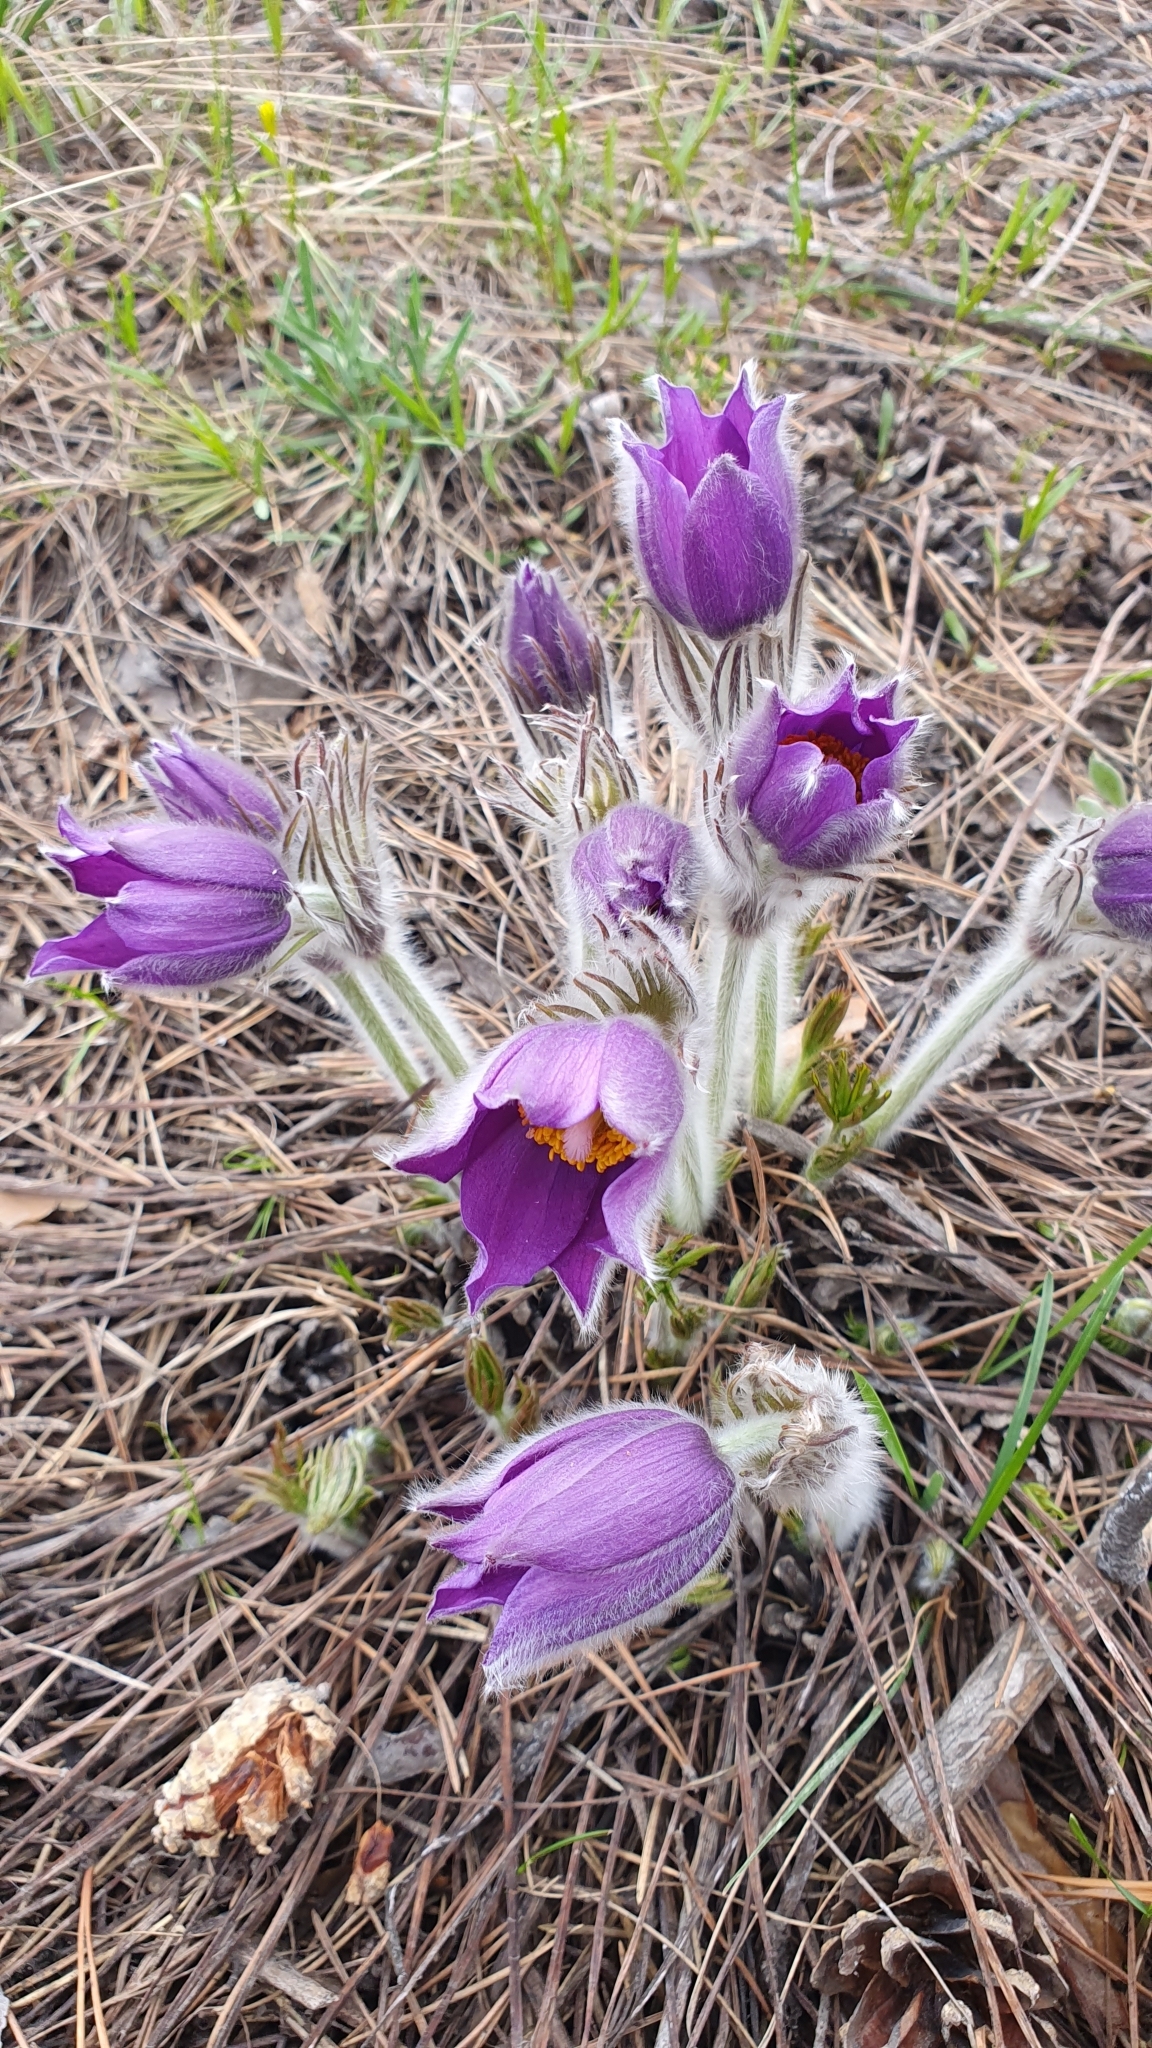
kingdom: Plantae
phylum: Tracheophyta
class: Magnoliopsida
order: Ranunculales
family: Ranunculaceae
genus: Pulsatilla
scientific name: Pulsatilla patens
